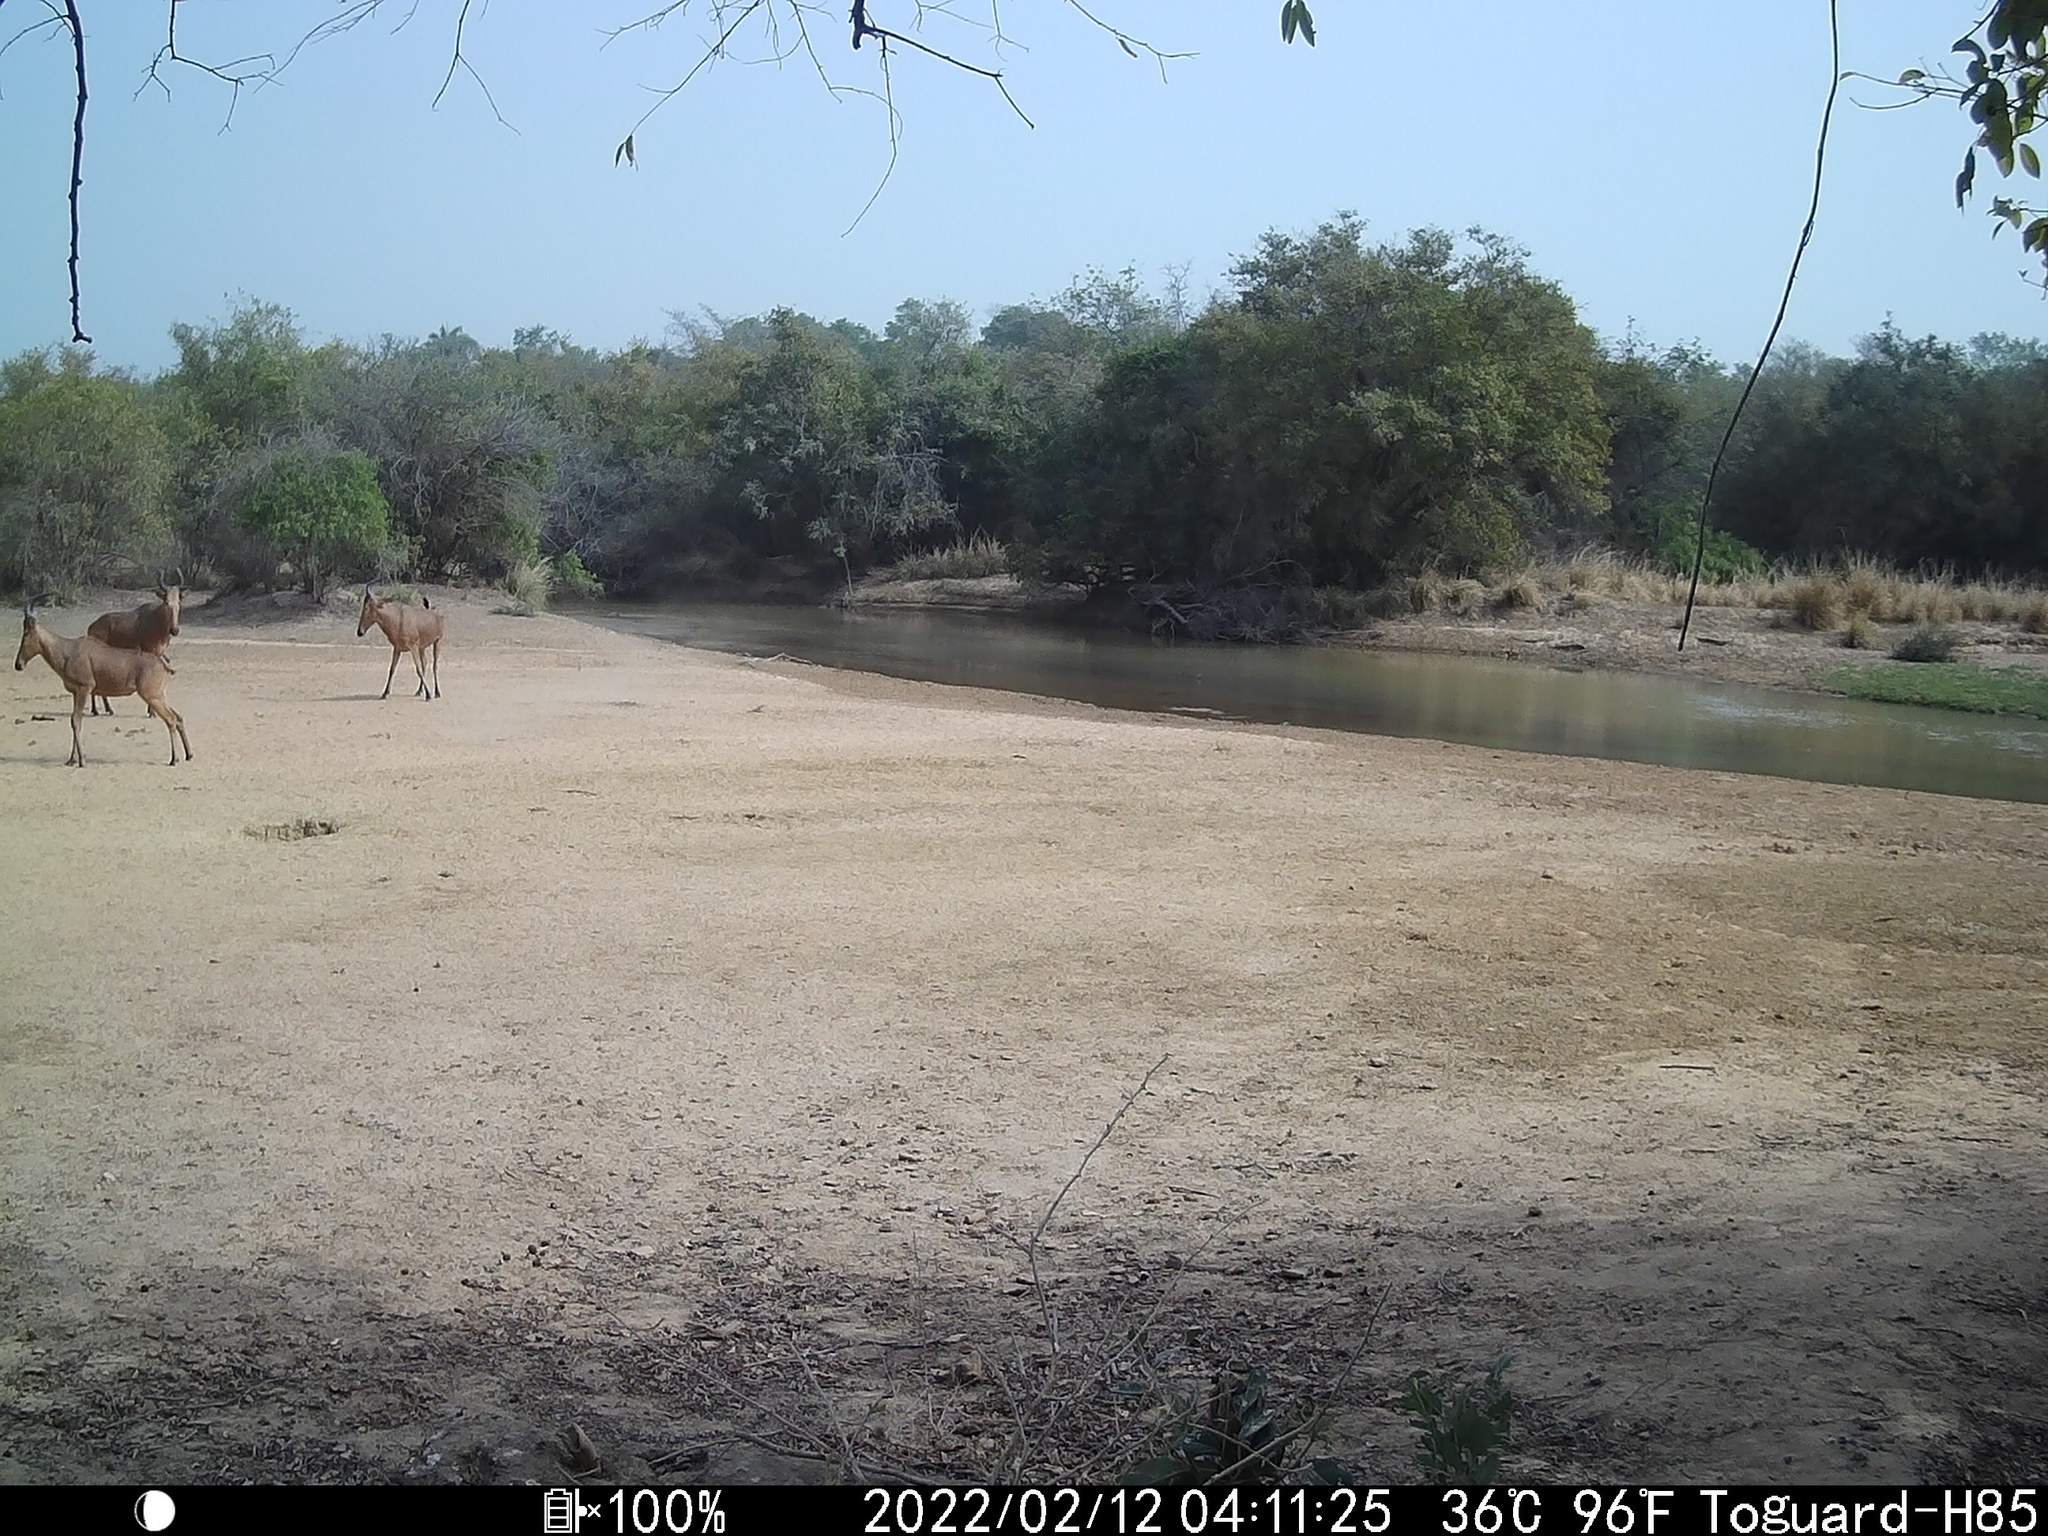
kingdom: Animalia
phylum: Chordata
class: Mammalia
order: Artiodactyla
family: Bovidae
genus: Alcelaphus
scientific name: Alcelaphus buselaphus
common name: Hartebeest
